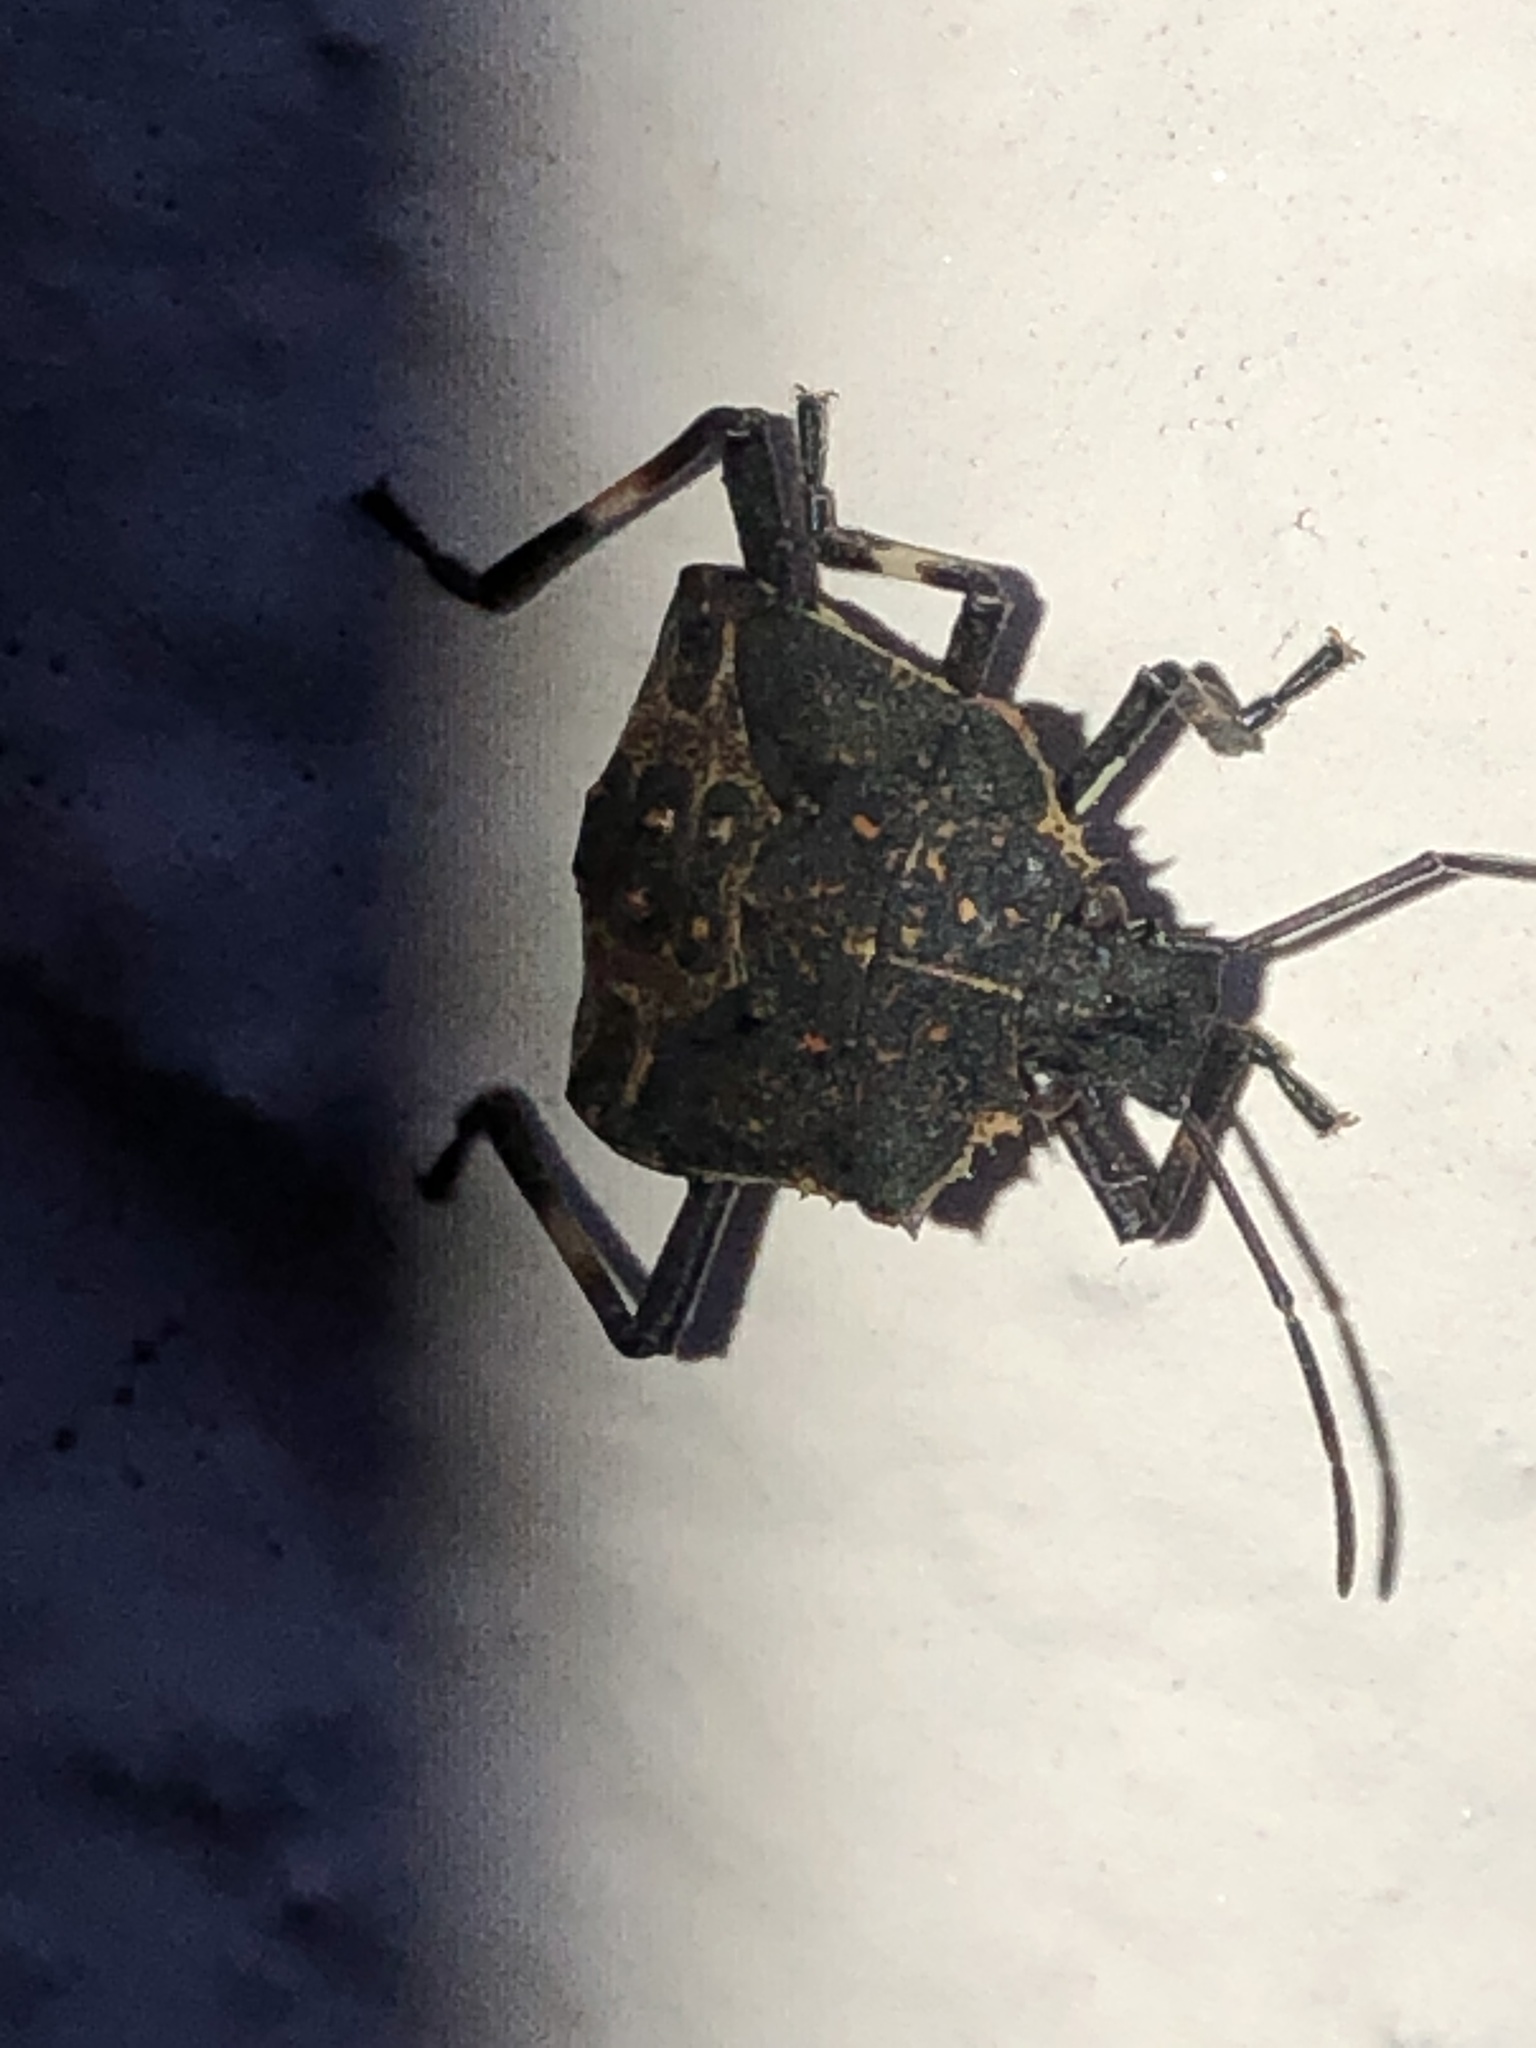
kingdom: Animalia
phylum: Arthropoda
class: Insecta
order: Hemiptera
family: Pentatomidae
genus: Halyomorpha
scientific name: Halyomorpha halys
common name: Brown marmorated stink bug
